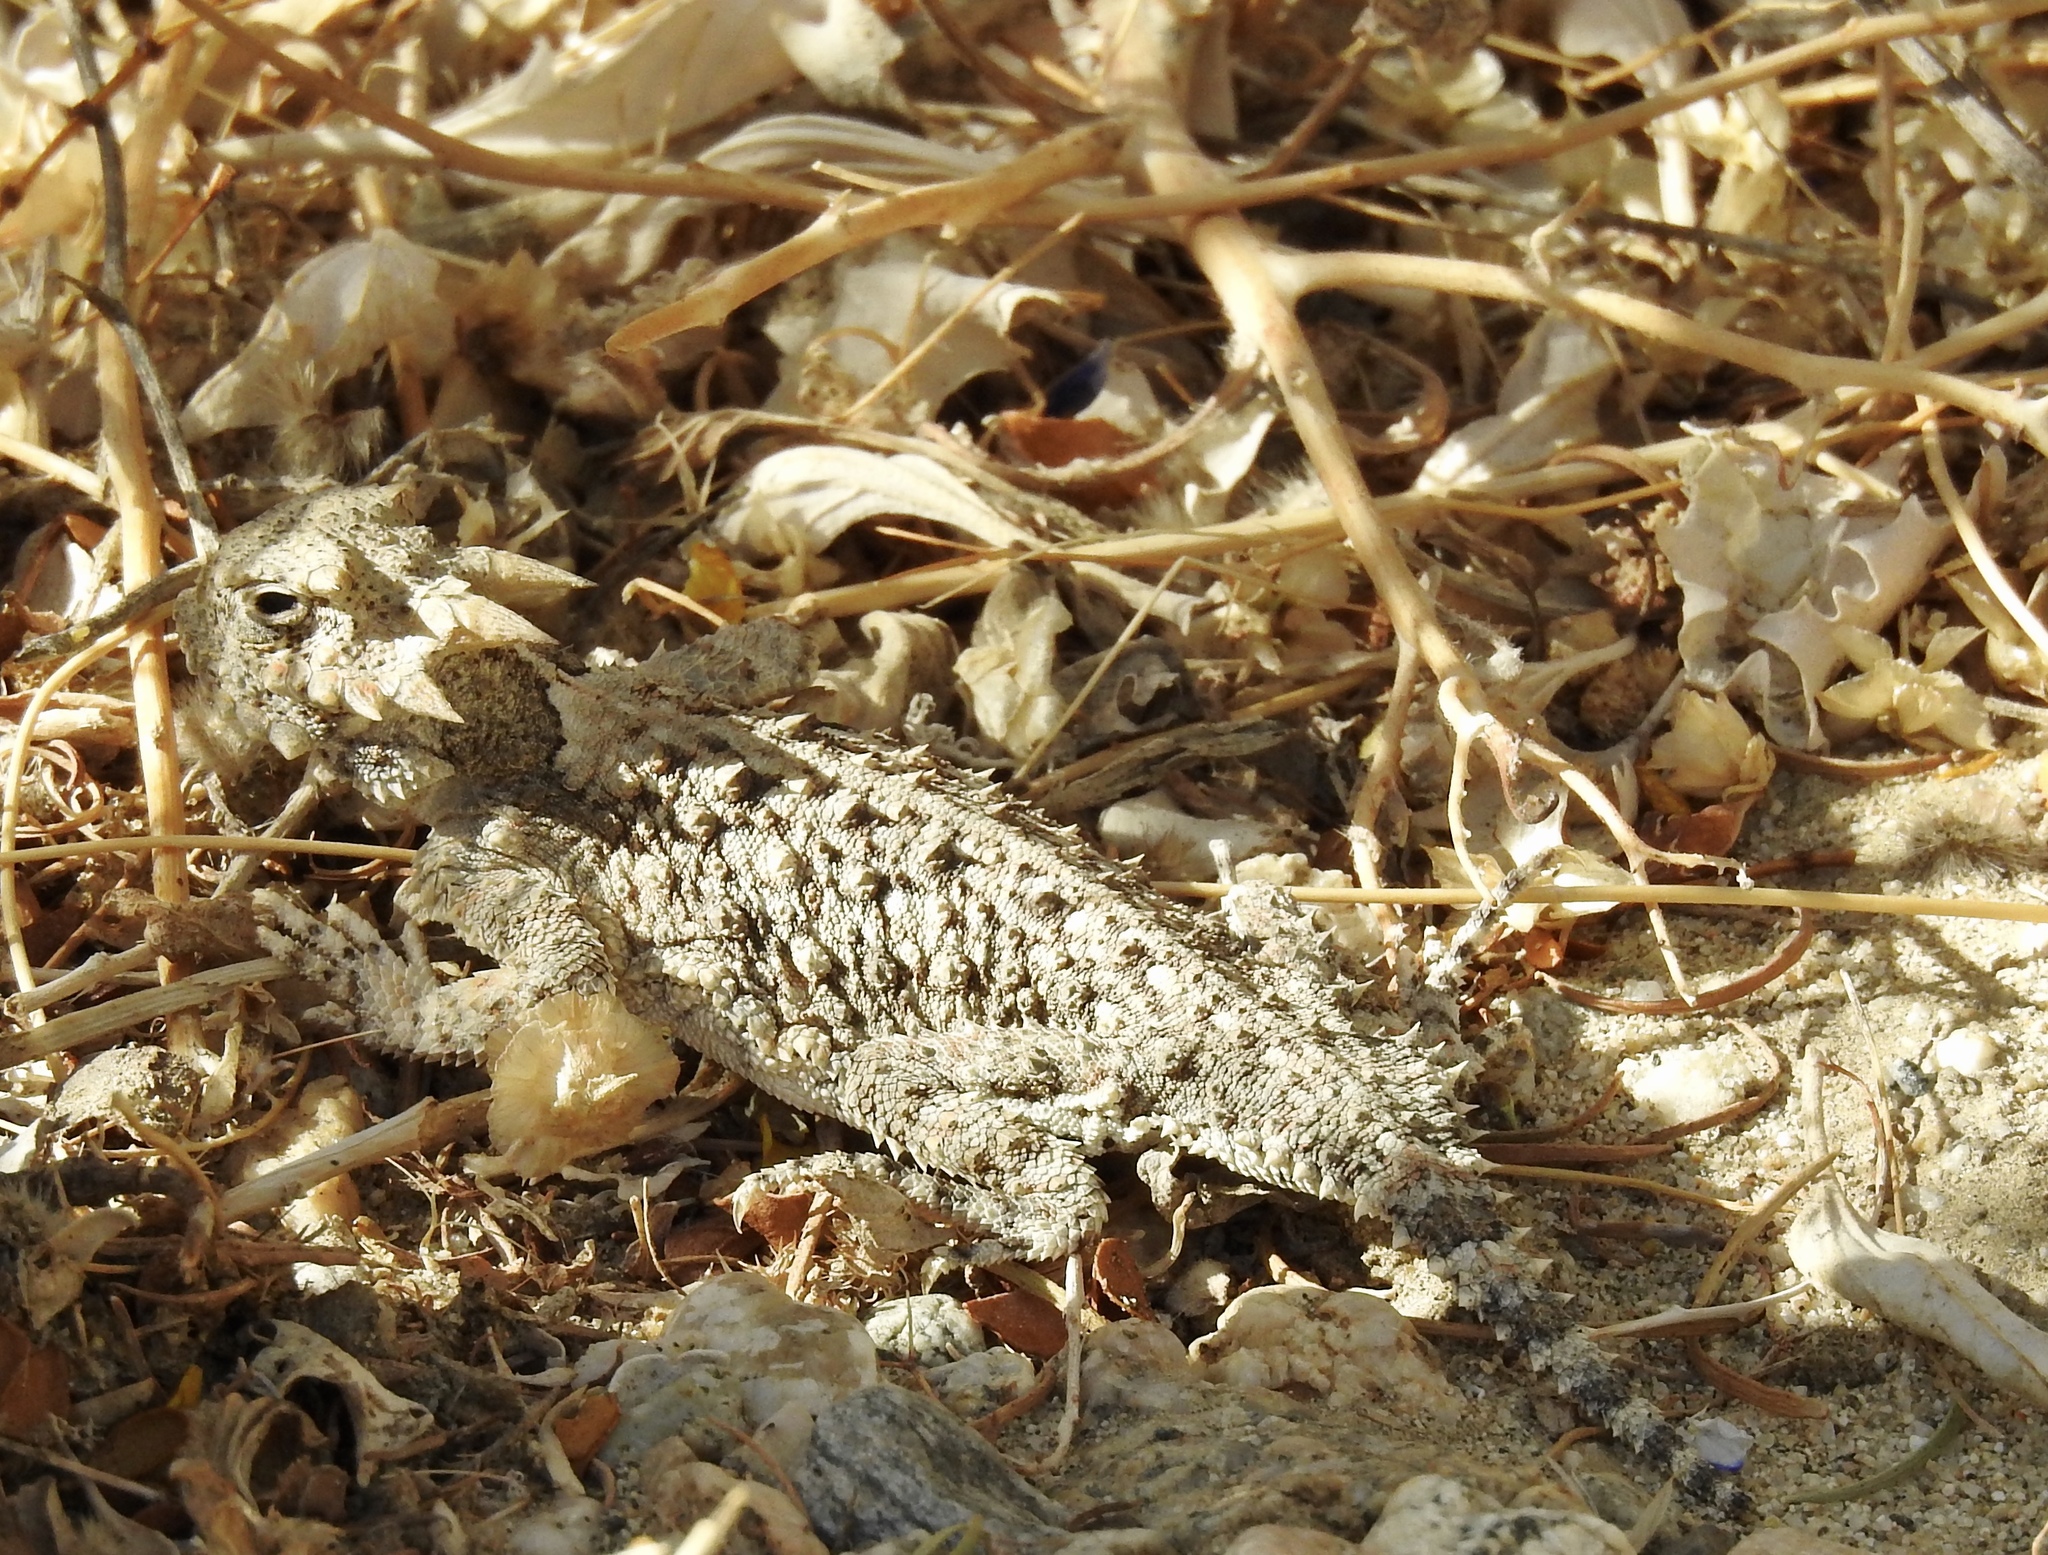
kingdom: Animalia
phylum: Chordata
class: Squamata
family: Phrynosomatidae
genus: Phrynosoma
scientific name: Phrynosoma platyrhinos
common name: Desert horned lizard
